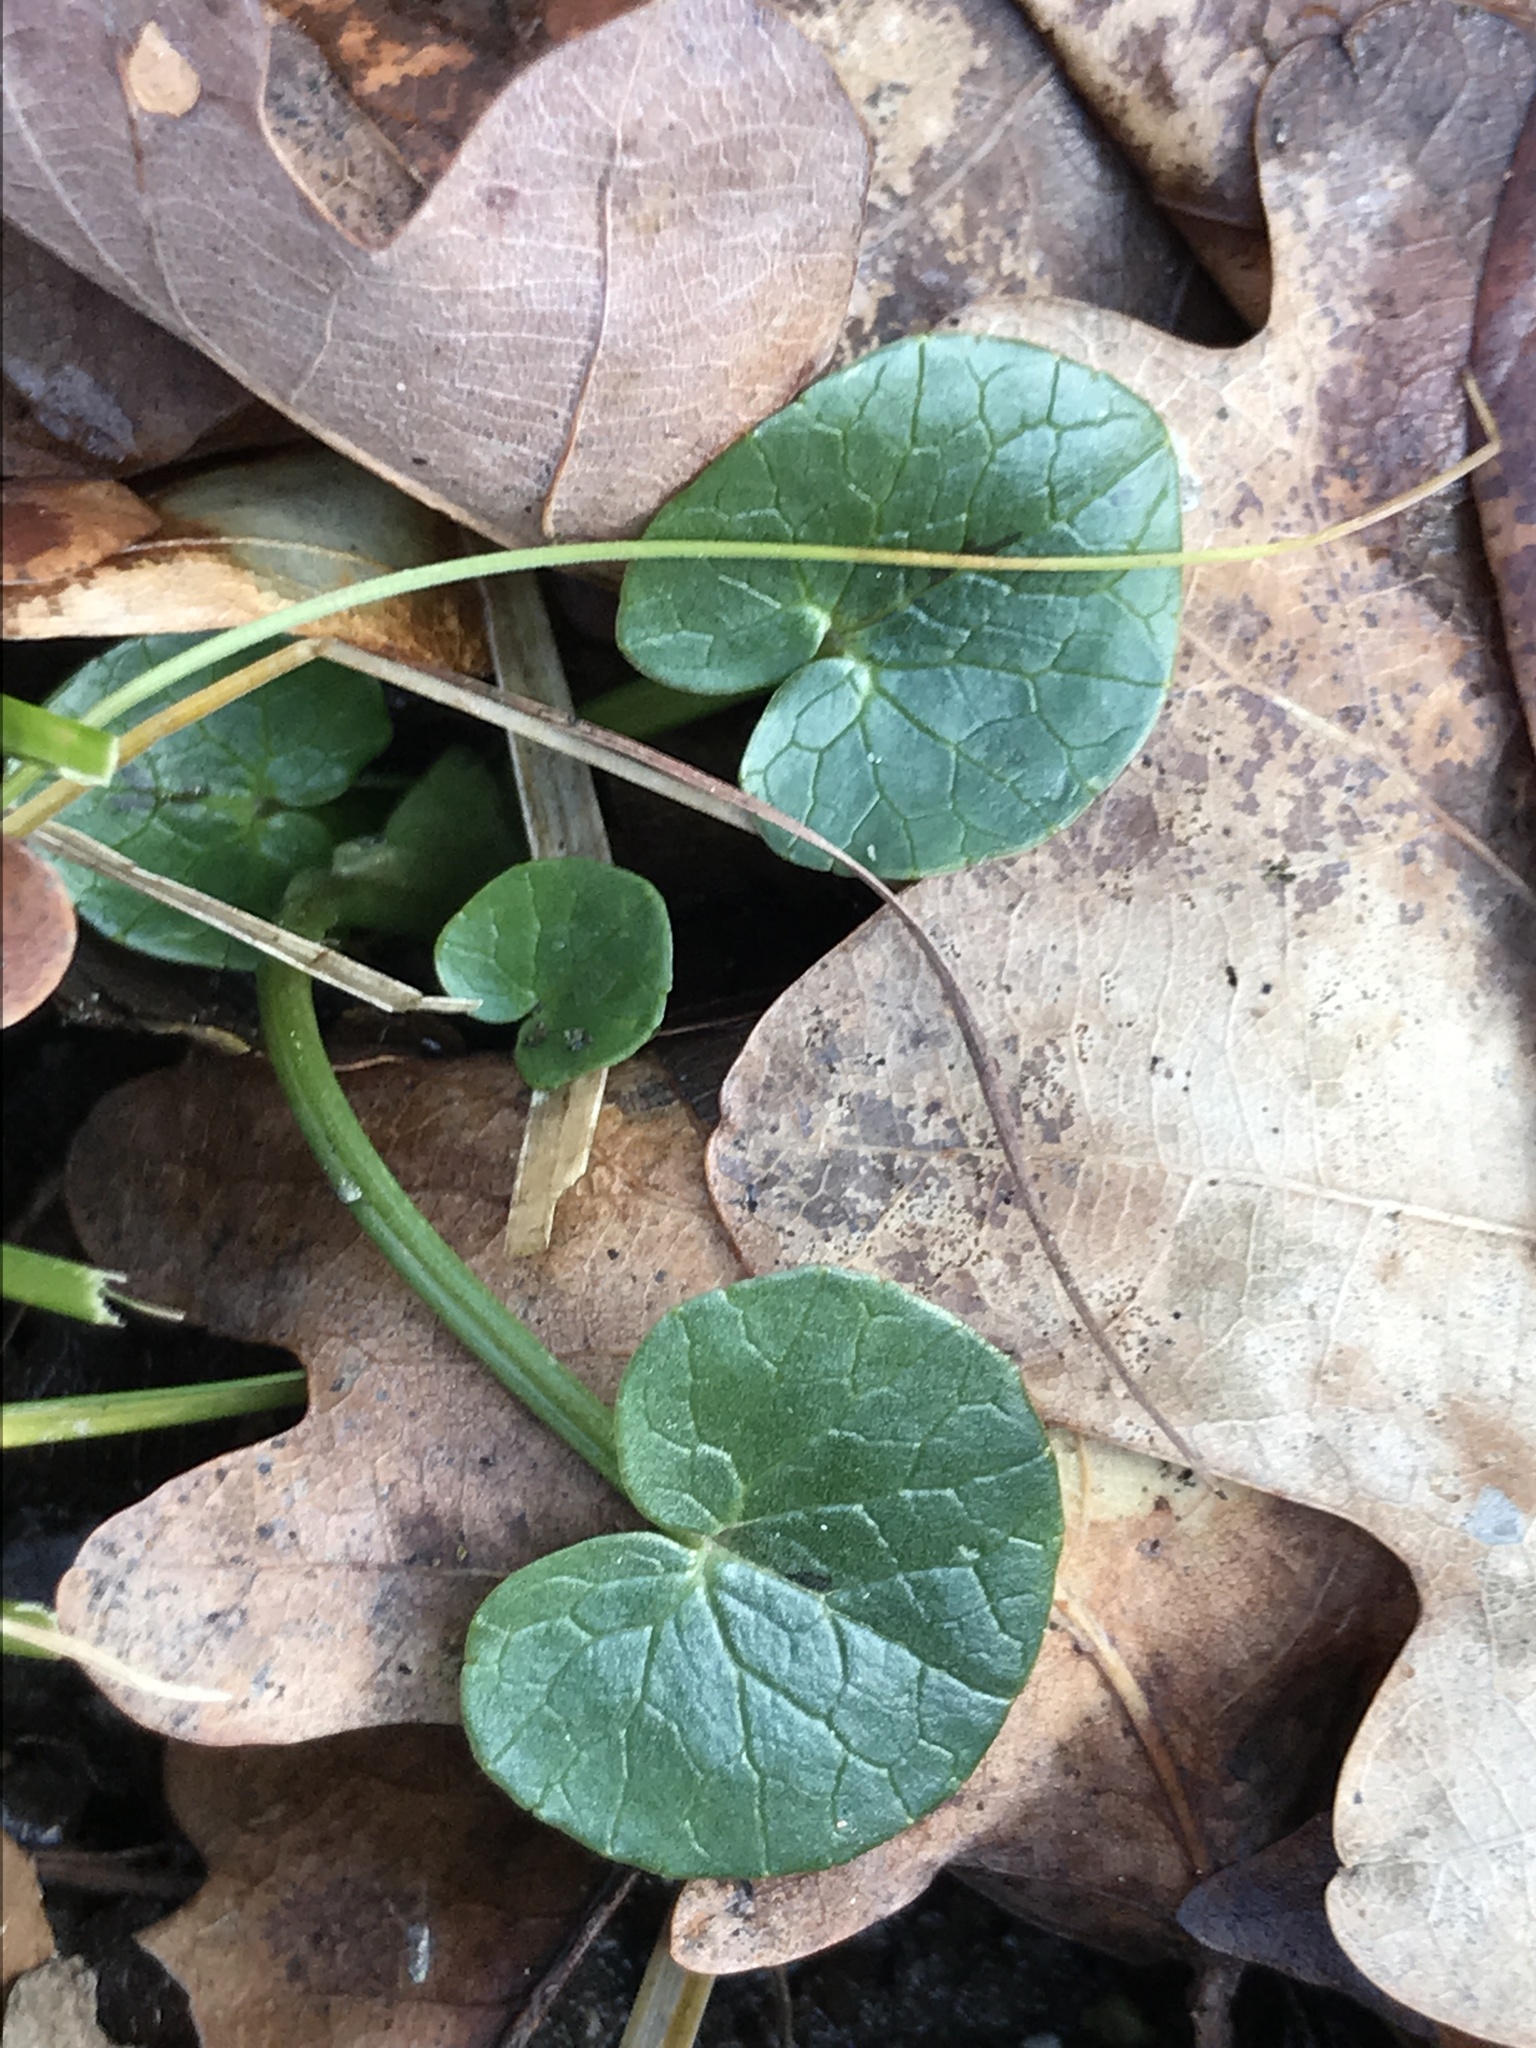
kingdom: Plantae
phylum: Tracheophyta
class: Magnoliopsida
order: Ranunculales
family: Ranunculaceae
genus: Ficaria
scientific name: Ficaria verna
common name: Lesser celandine
